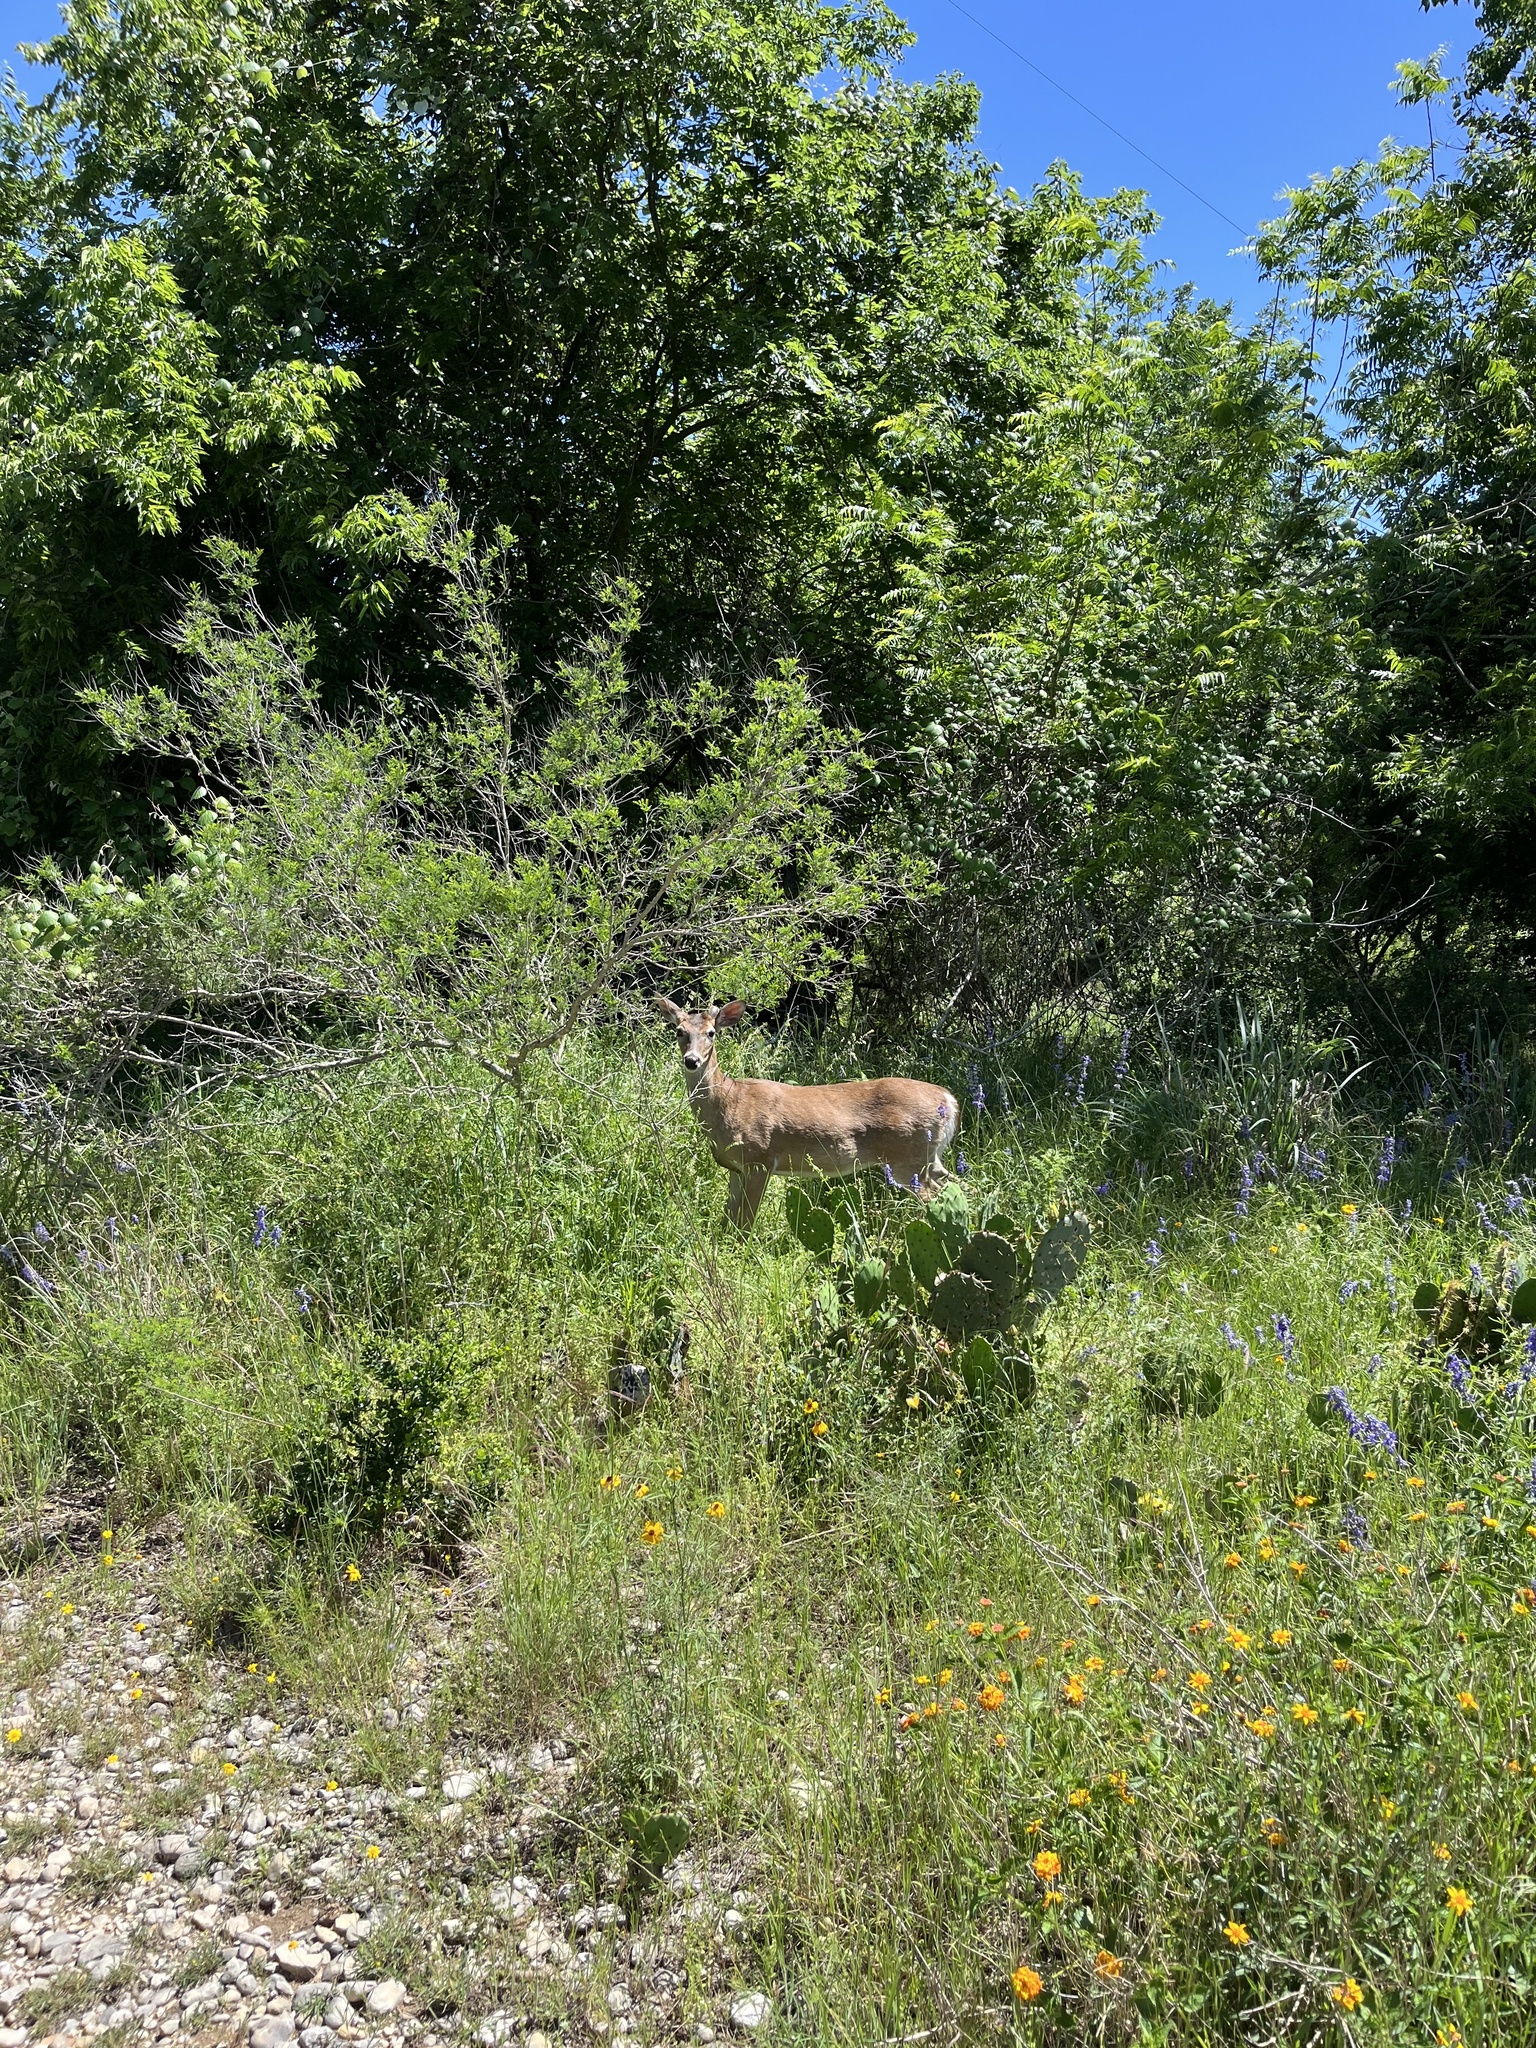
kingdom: Animalia
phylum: Chordata
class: Mammalia
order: Artiodactyla
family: Cervidae
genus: Odocoileus
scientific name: Odocoileus virginianus
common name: White-tailed deer
